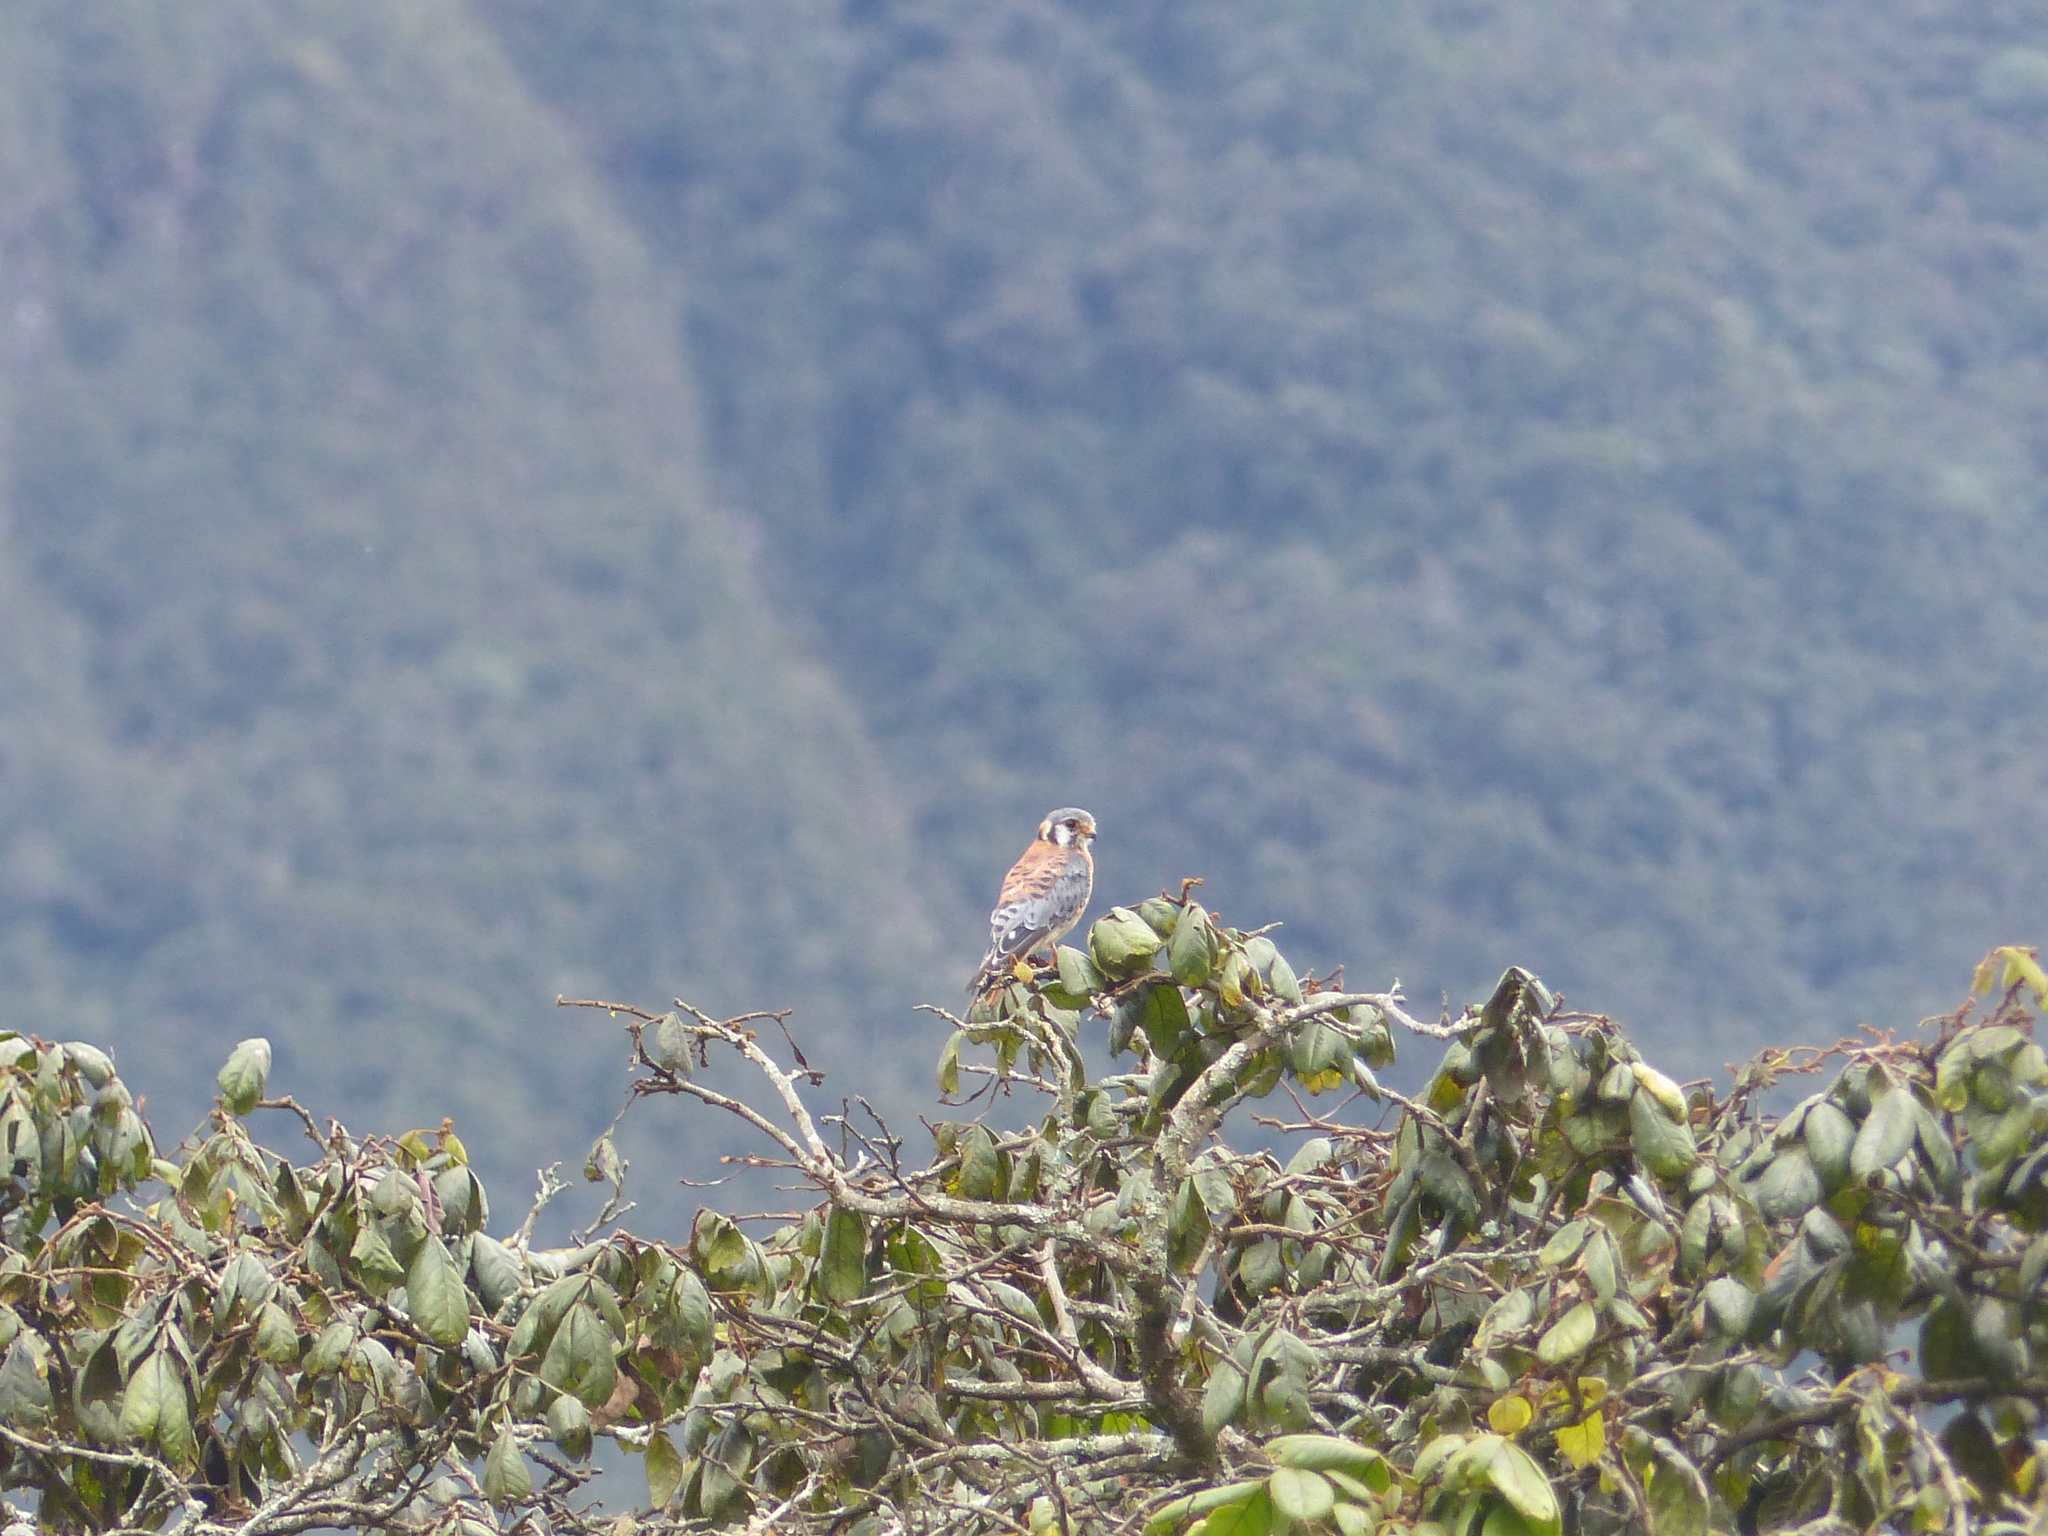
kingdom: Animalia
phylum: Chordata
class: Aves
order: Falconiformes
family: Falconidae
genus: Falco
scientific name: Falco sparverius
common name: American kestrel
